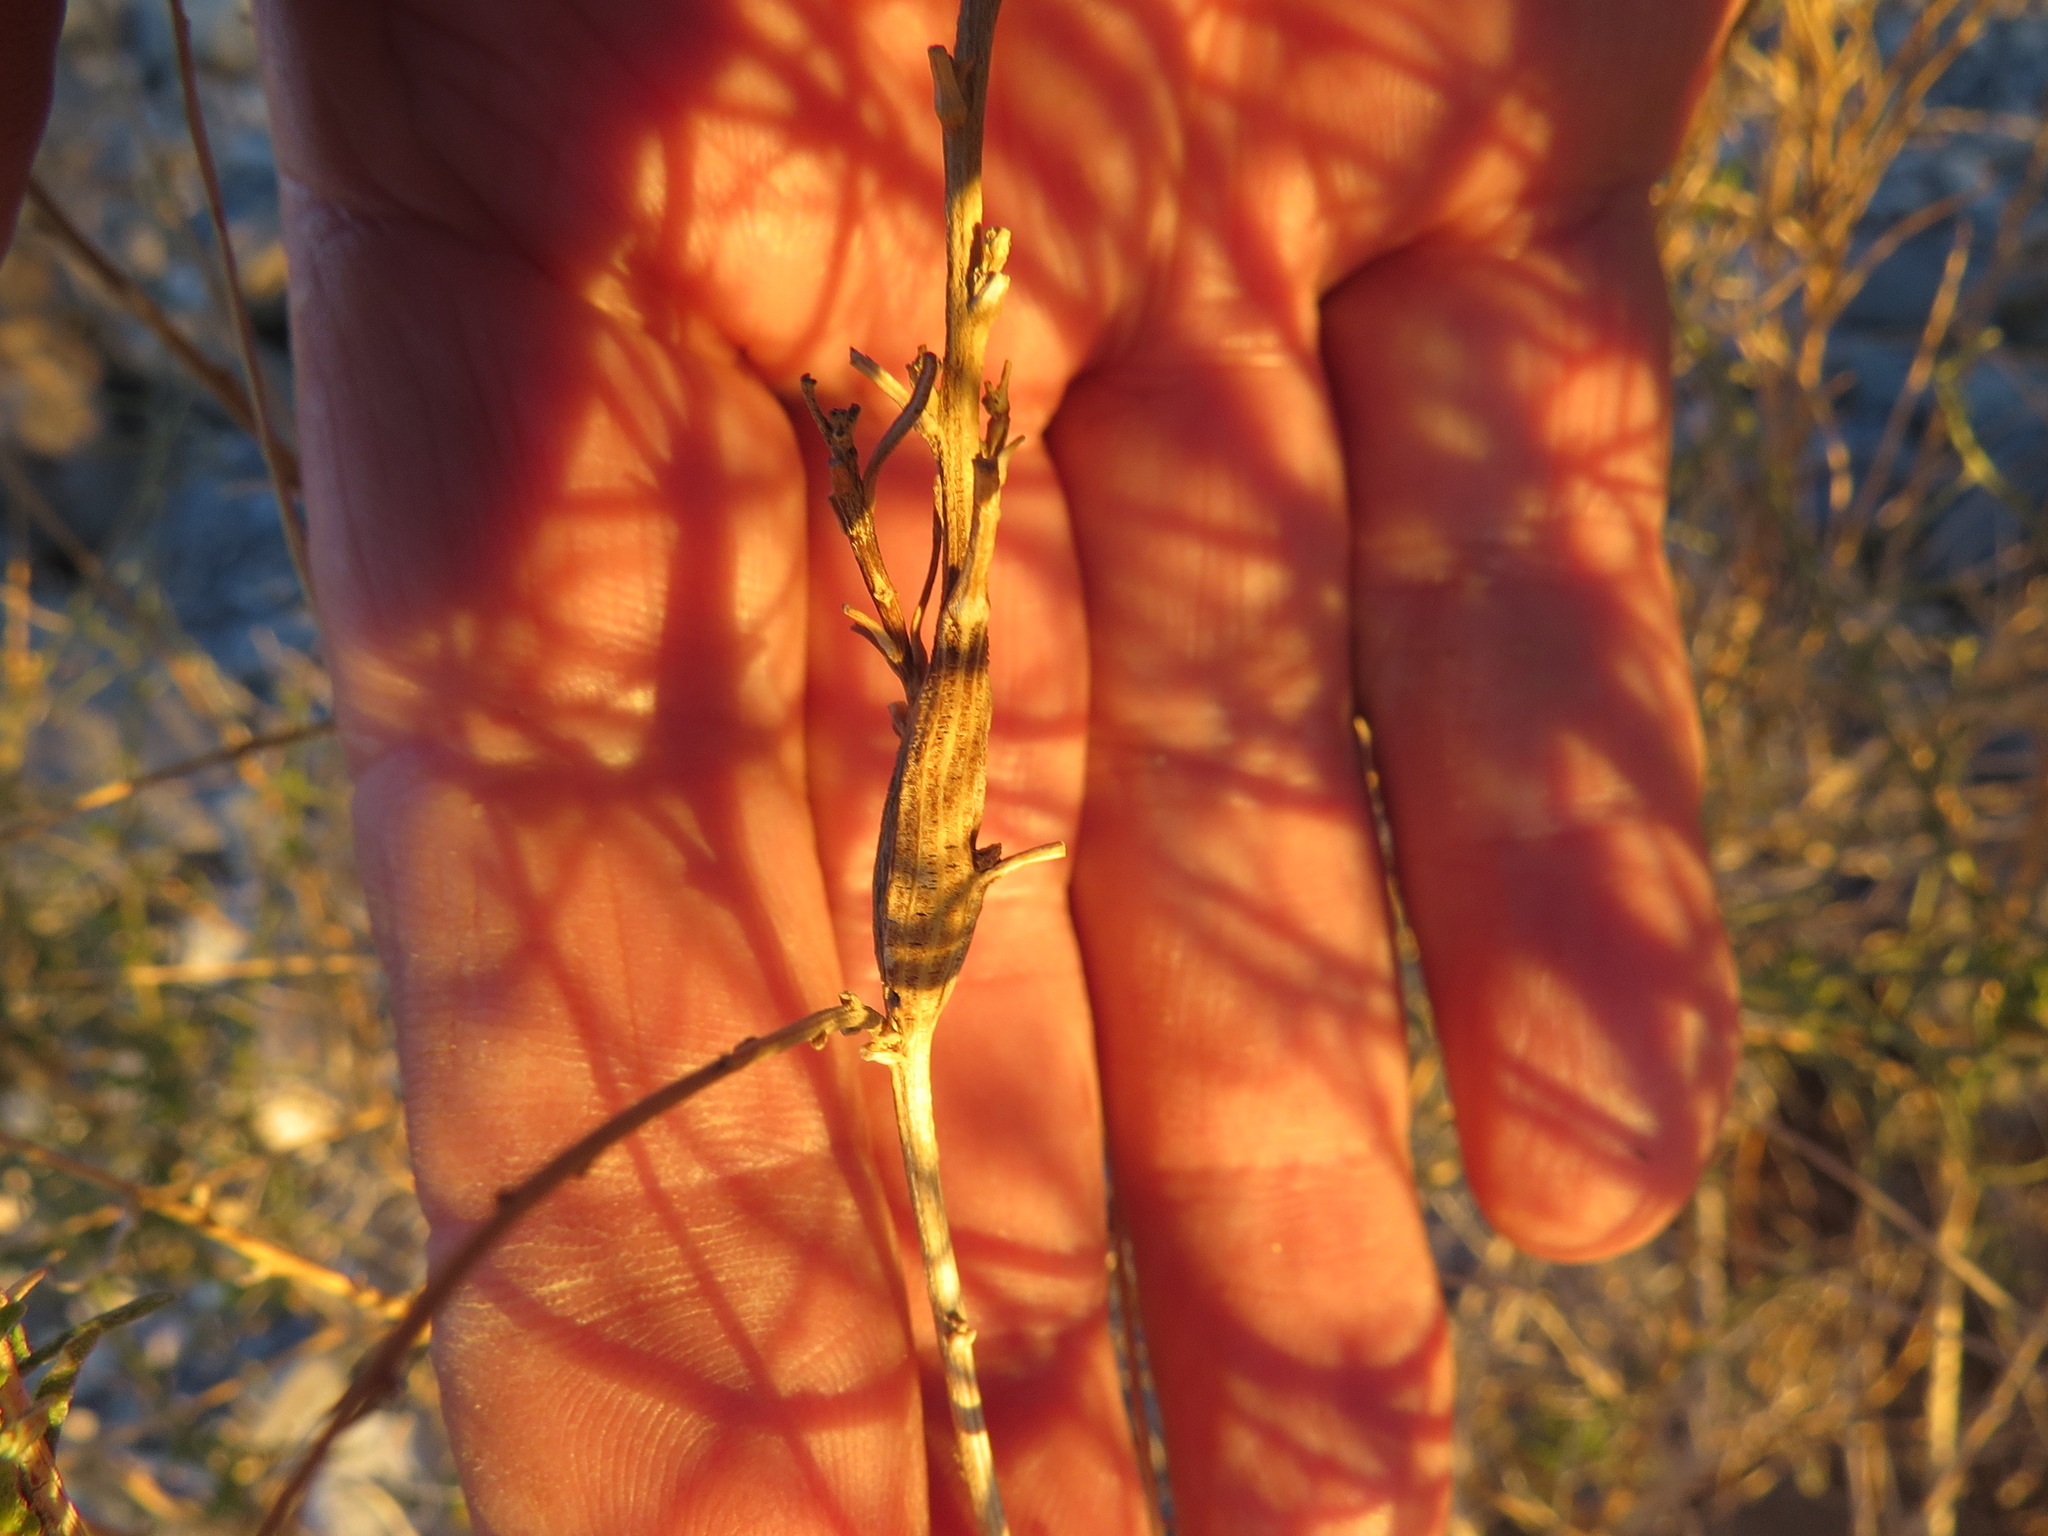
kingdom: Animalia
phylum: Arthropoda
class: Insecta
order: Lepidoptera
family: Tortricidae
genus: Epiblema
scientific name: Epiblema rudei
